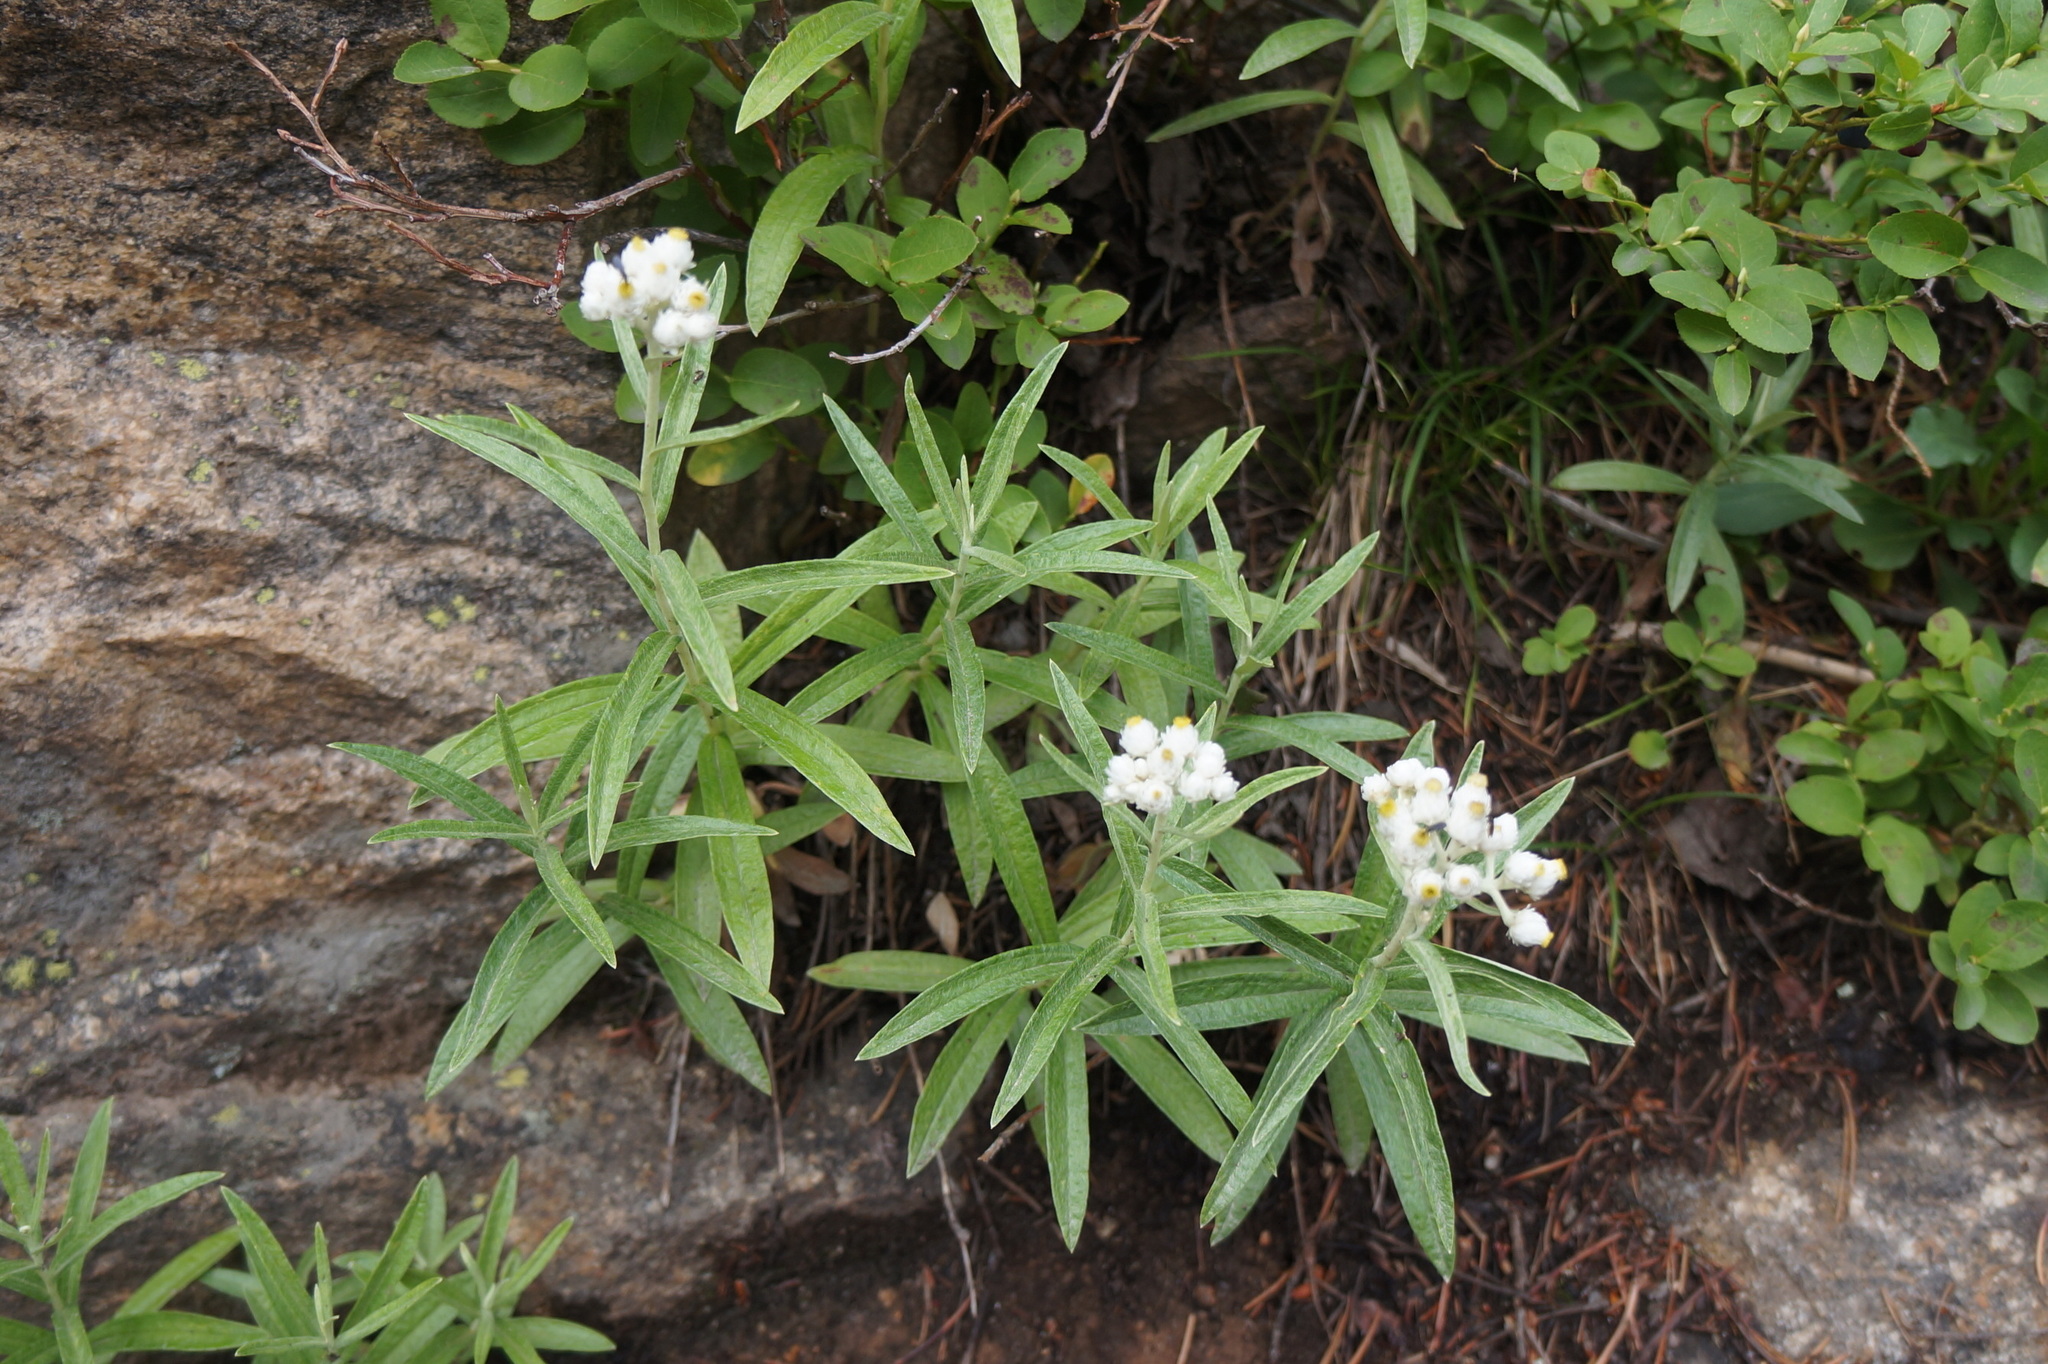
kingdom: Plantae
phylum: Tracheophyta
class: Magnoliopsida
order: Asterales
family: Asteraceae
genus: Anaphalis
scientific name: Anaphalis margaritacea
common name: Pearly everlasting
